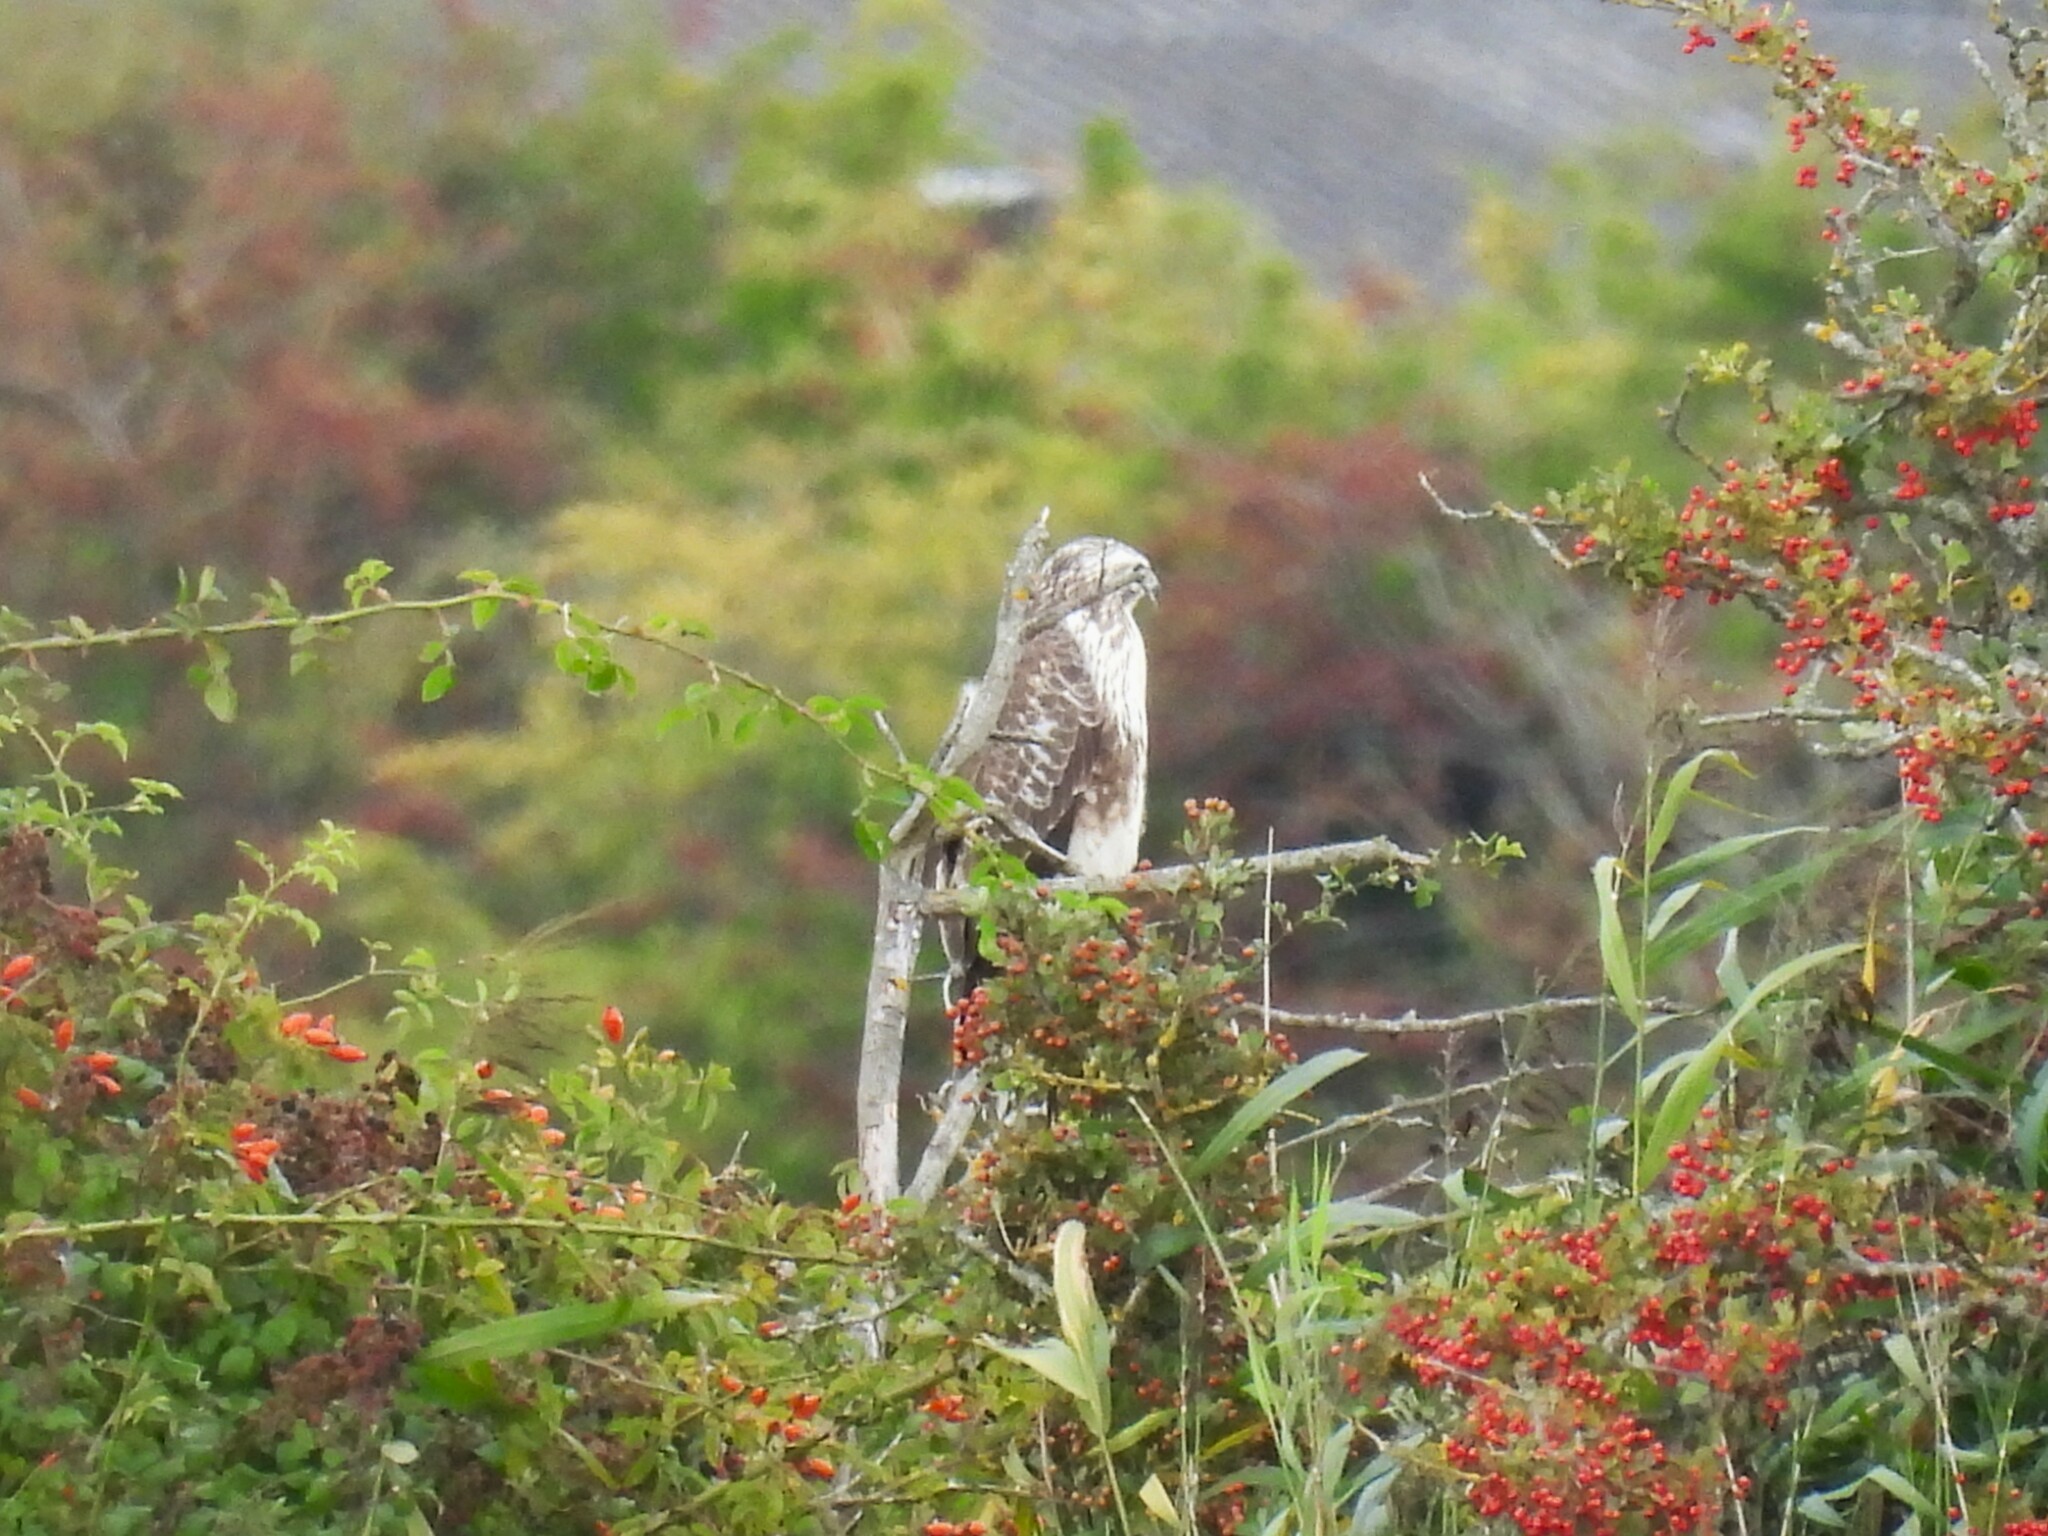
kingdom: Animalia
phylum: Chordata
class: Aves
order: Accipitriformes
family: Accipitridae
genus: Buteo
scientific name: Buteo buteo
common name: Common buzzard
